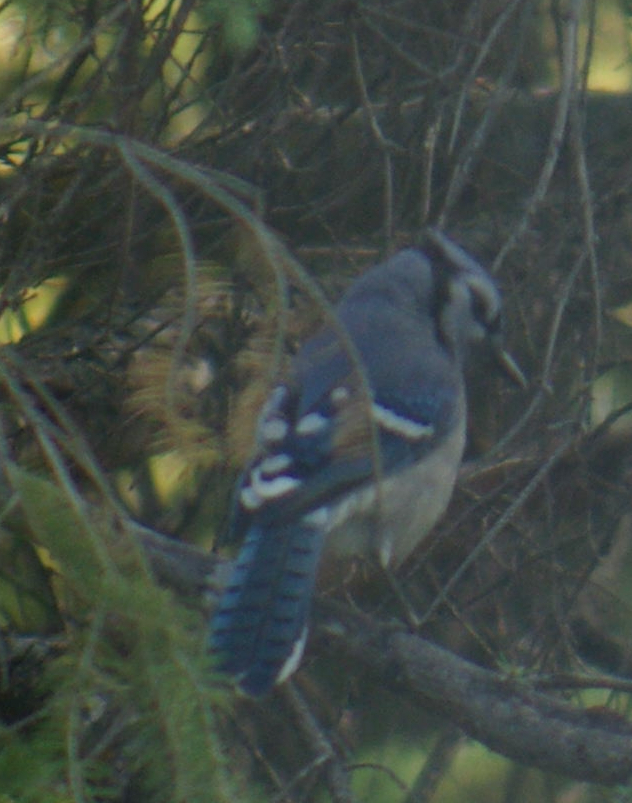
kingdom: Animalia
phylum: Chordata
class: Aves
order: Passeriformes
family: Corvidae
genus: Cyanocitta
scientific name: Cyanocitta cristata
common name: Blue jay
